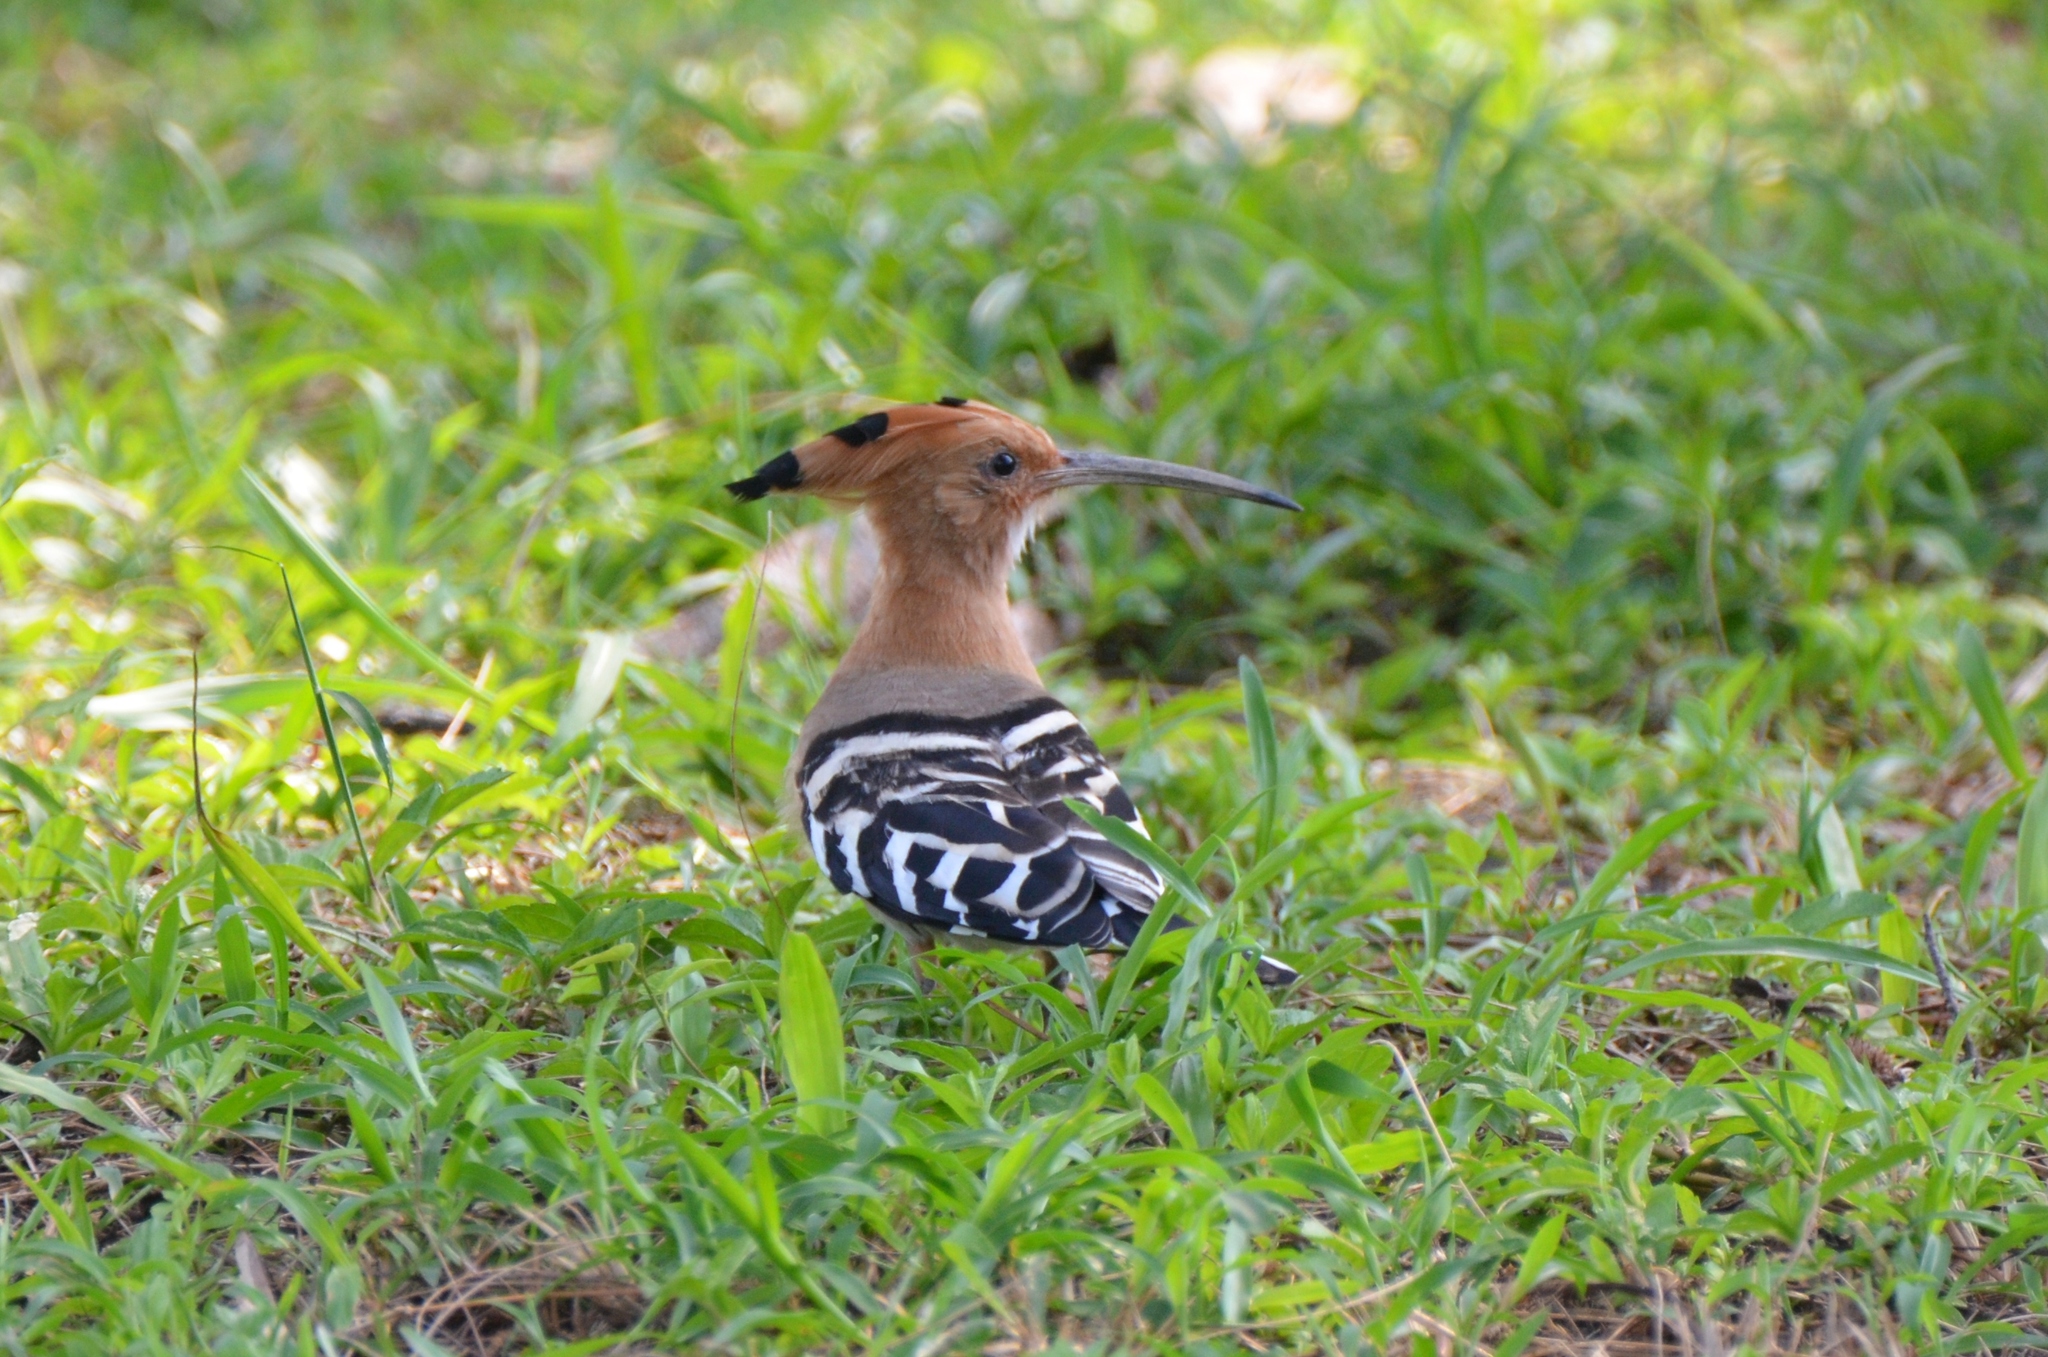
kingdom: Animalia
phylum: Chordata
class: Aves
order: Bucerotiformes
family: Upupidae
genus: Upupa
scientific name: Upupa epops
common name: Eurasian hoopoe
